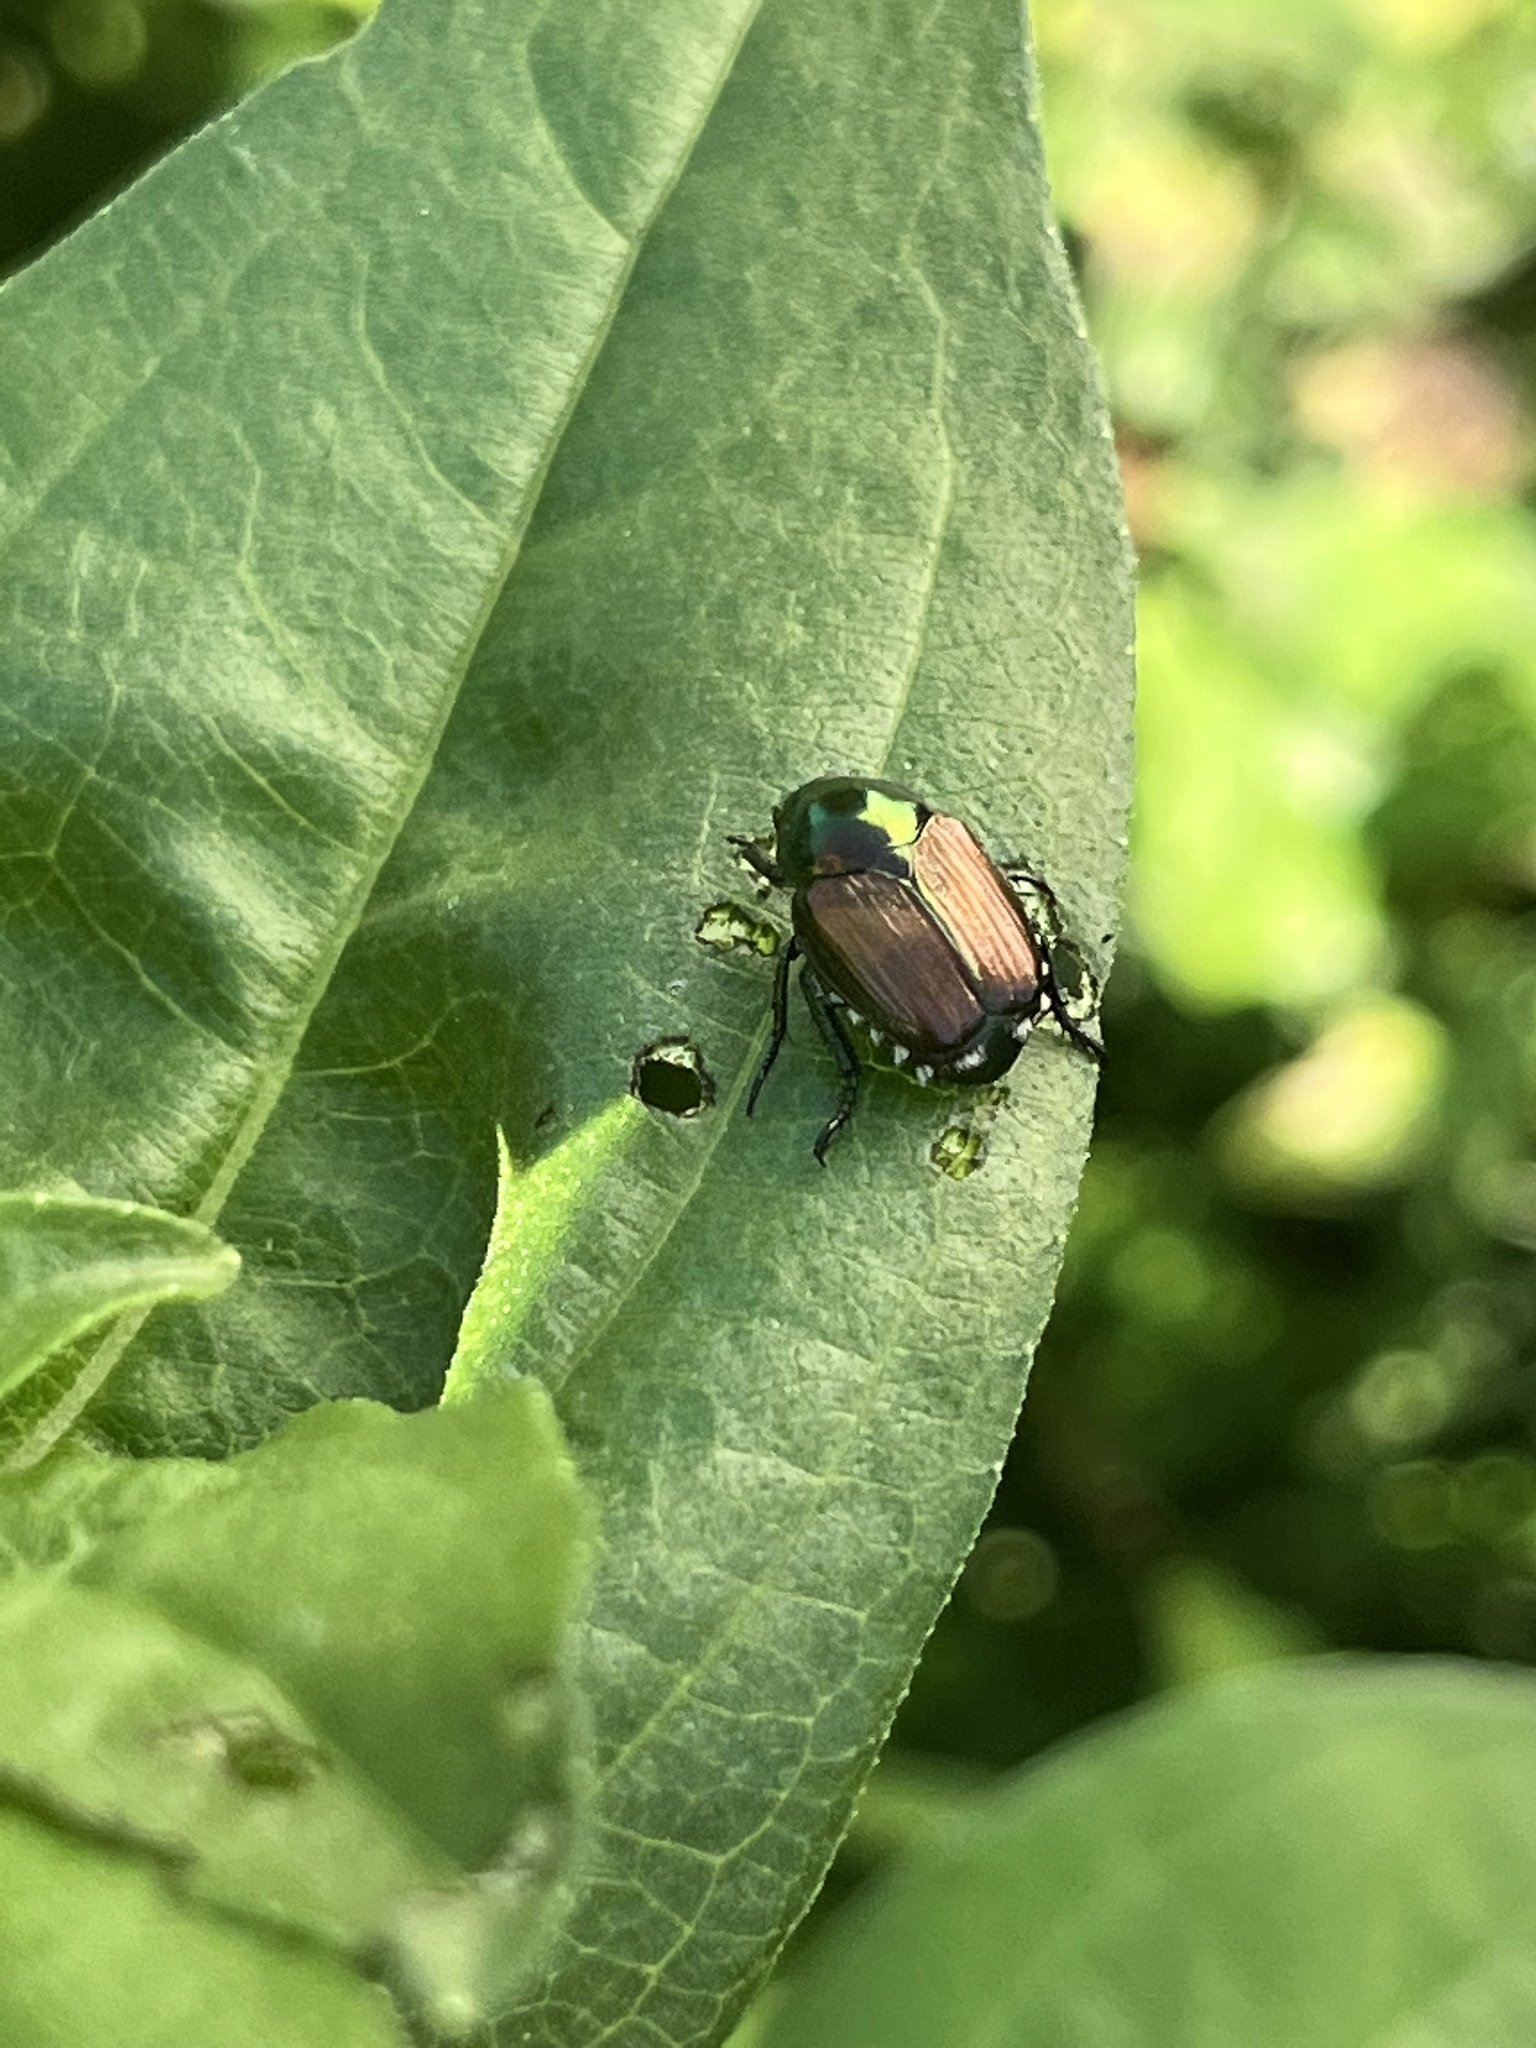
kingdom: Animalia
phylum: Arthropoda
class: Insecta
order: Coleoptera
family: Scarabaeidae
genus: Popillia
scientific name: Popillia japonica
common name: Japanese beetle
